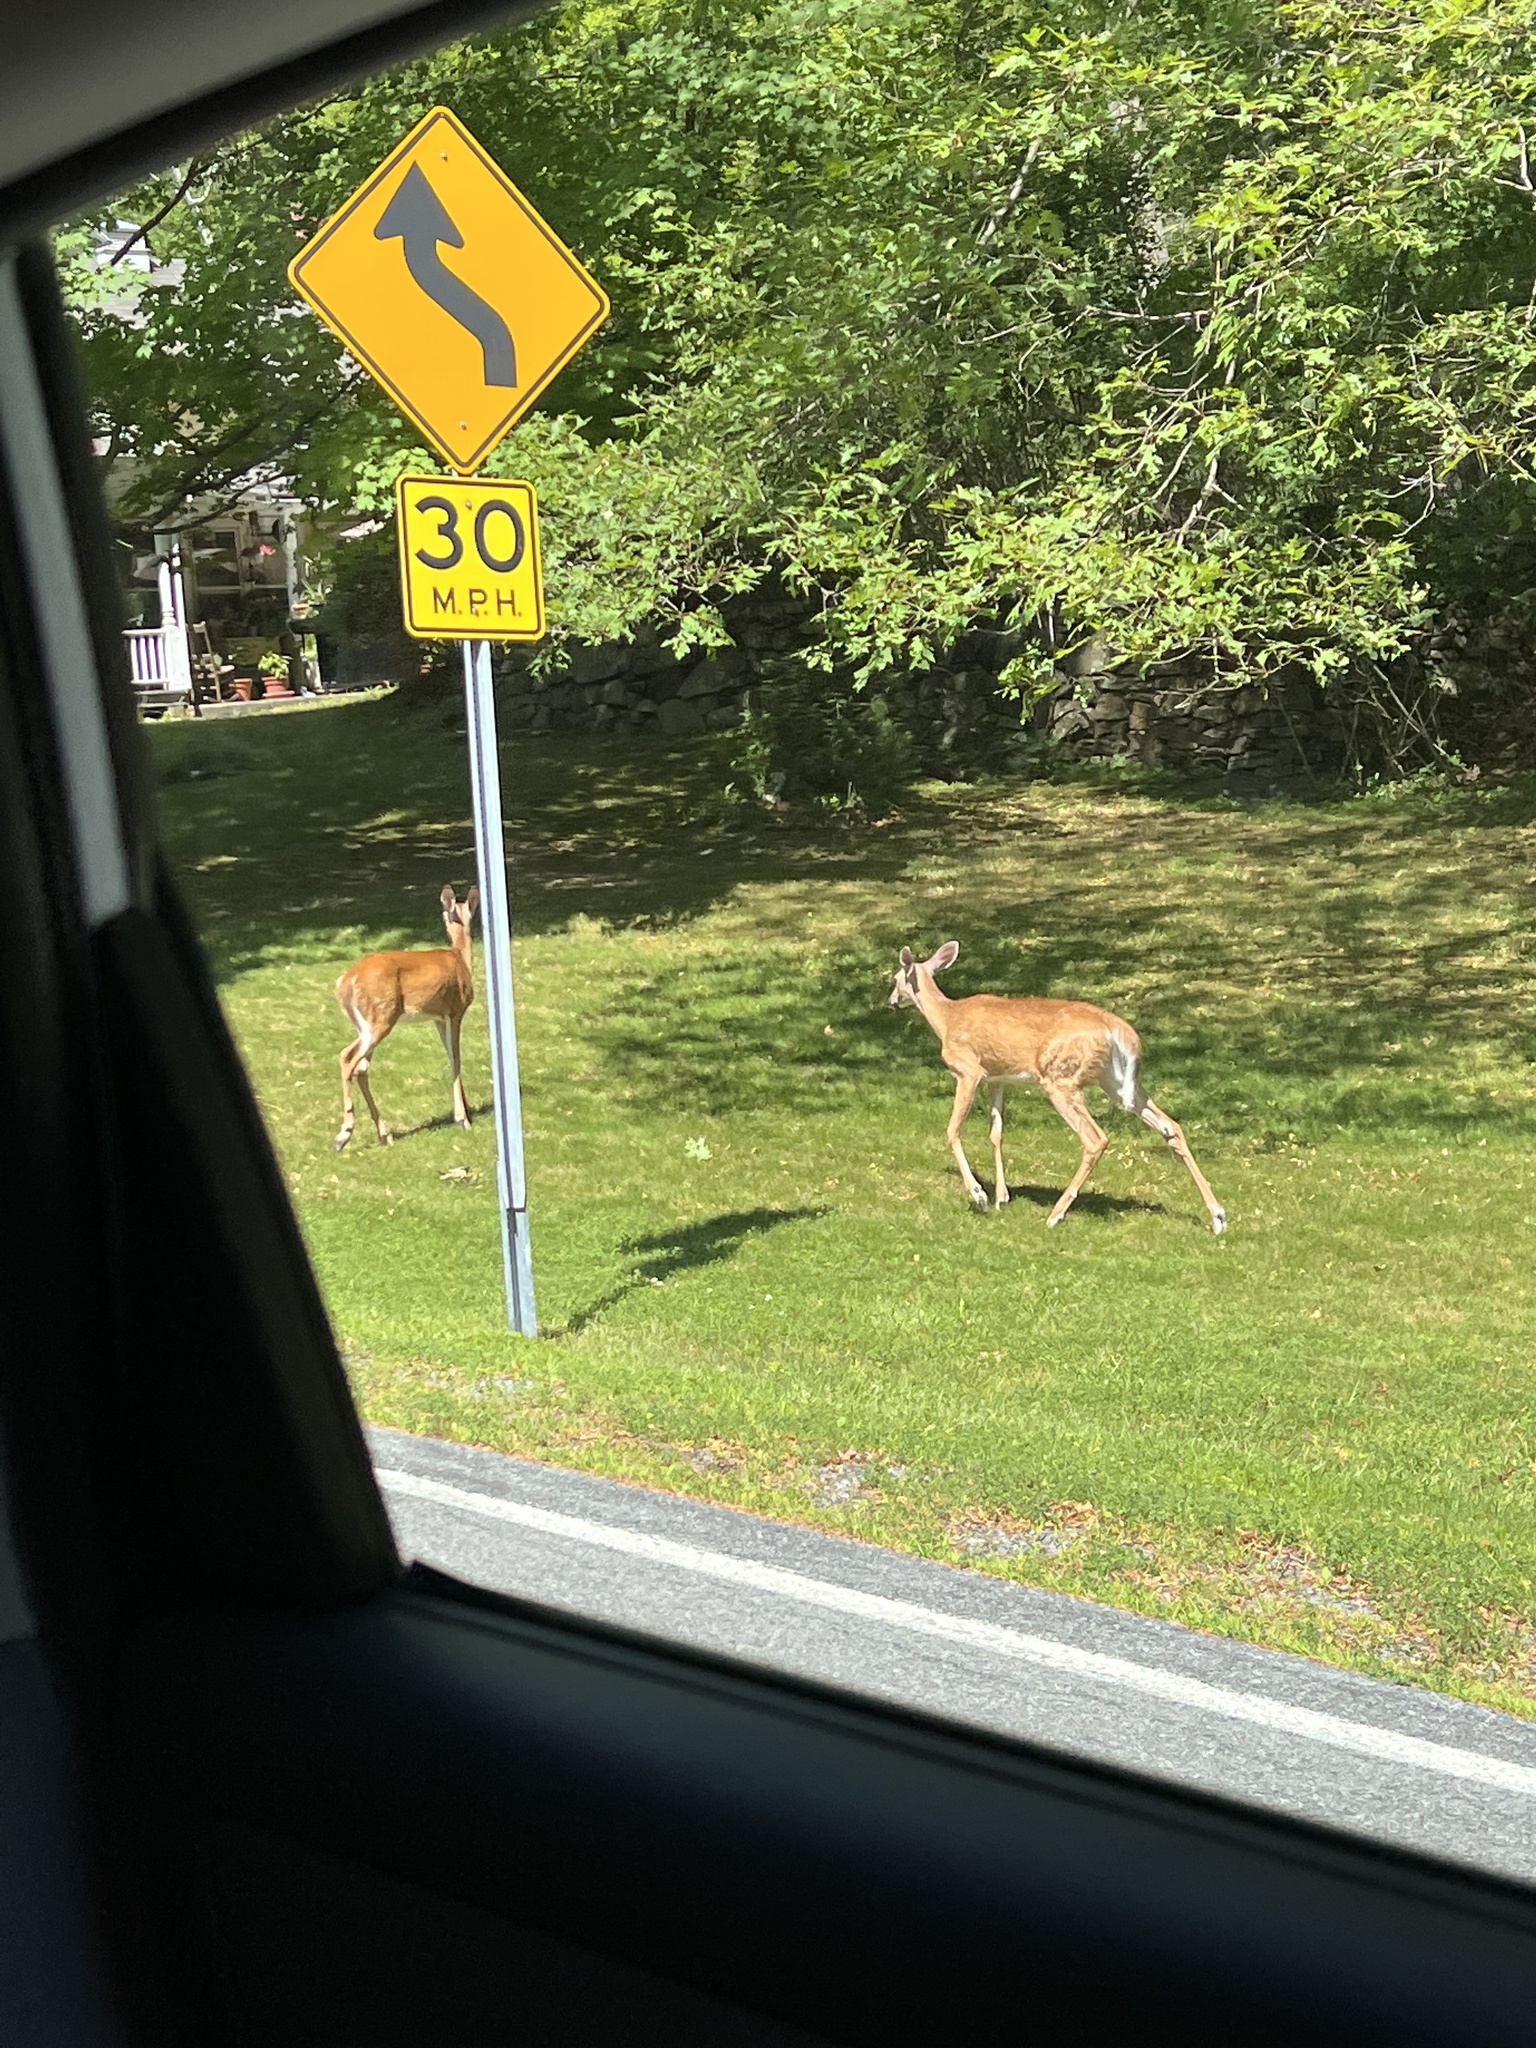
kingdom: Animalia
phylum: Chordata
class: Mammalia
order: Artiodactyla
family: Cervidae
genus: Odocoileus
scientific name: Odocoileus virginianus
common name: White-tailed deer
